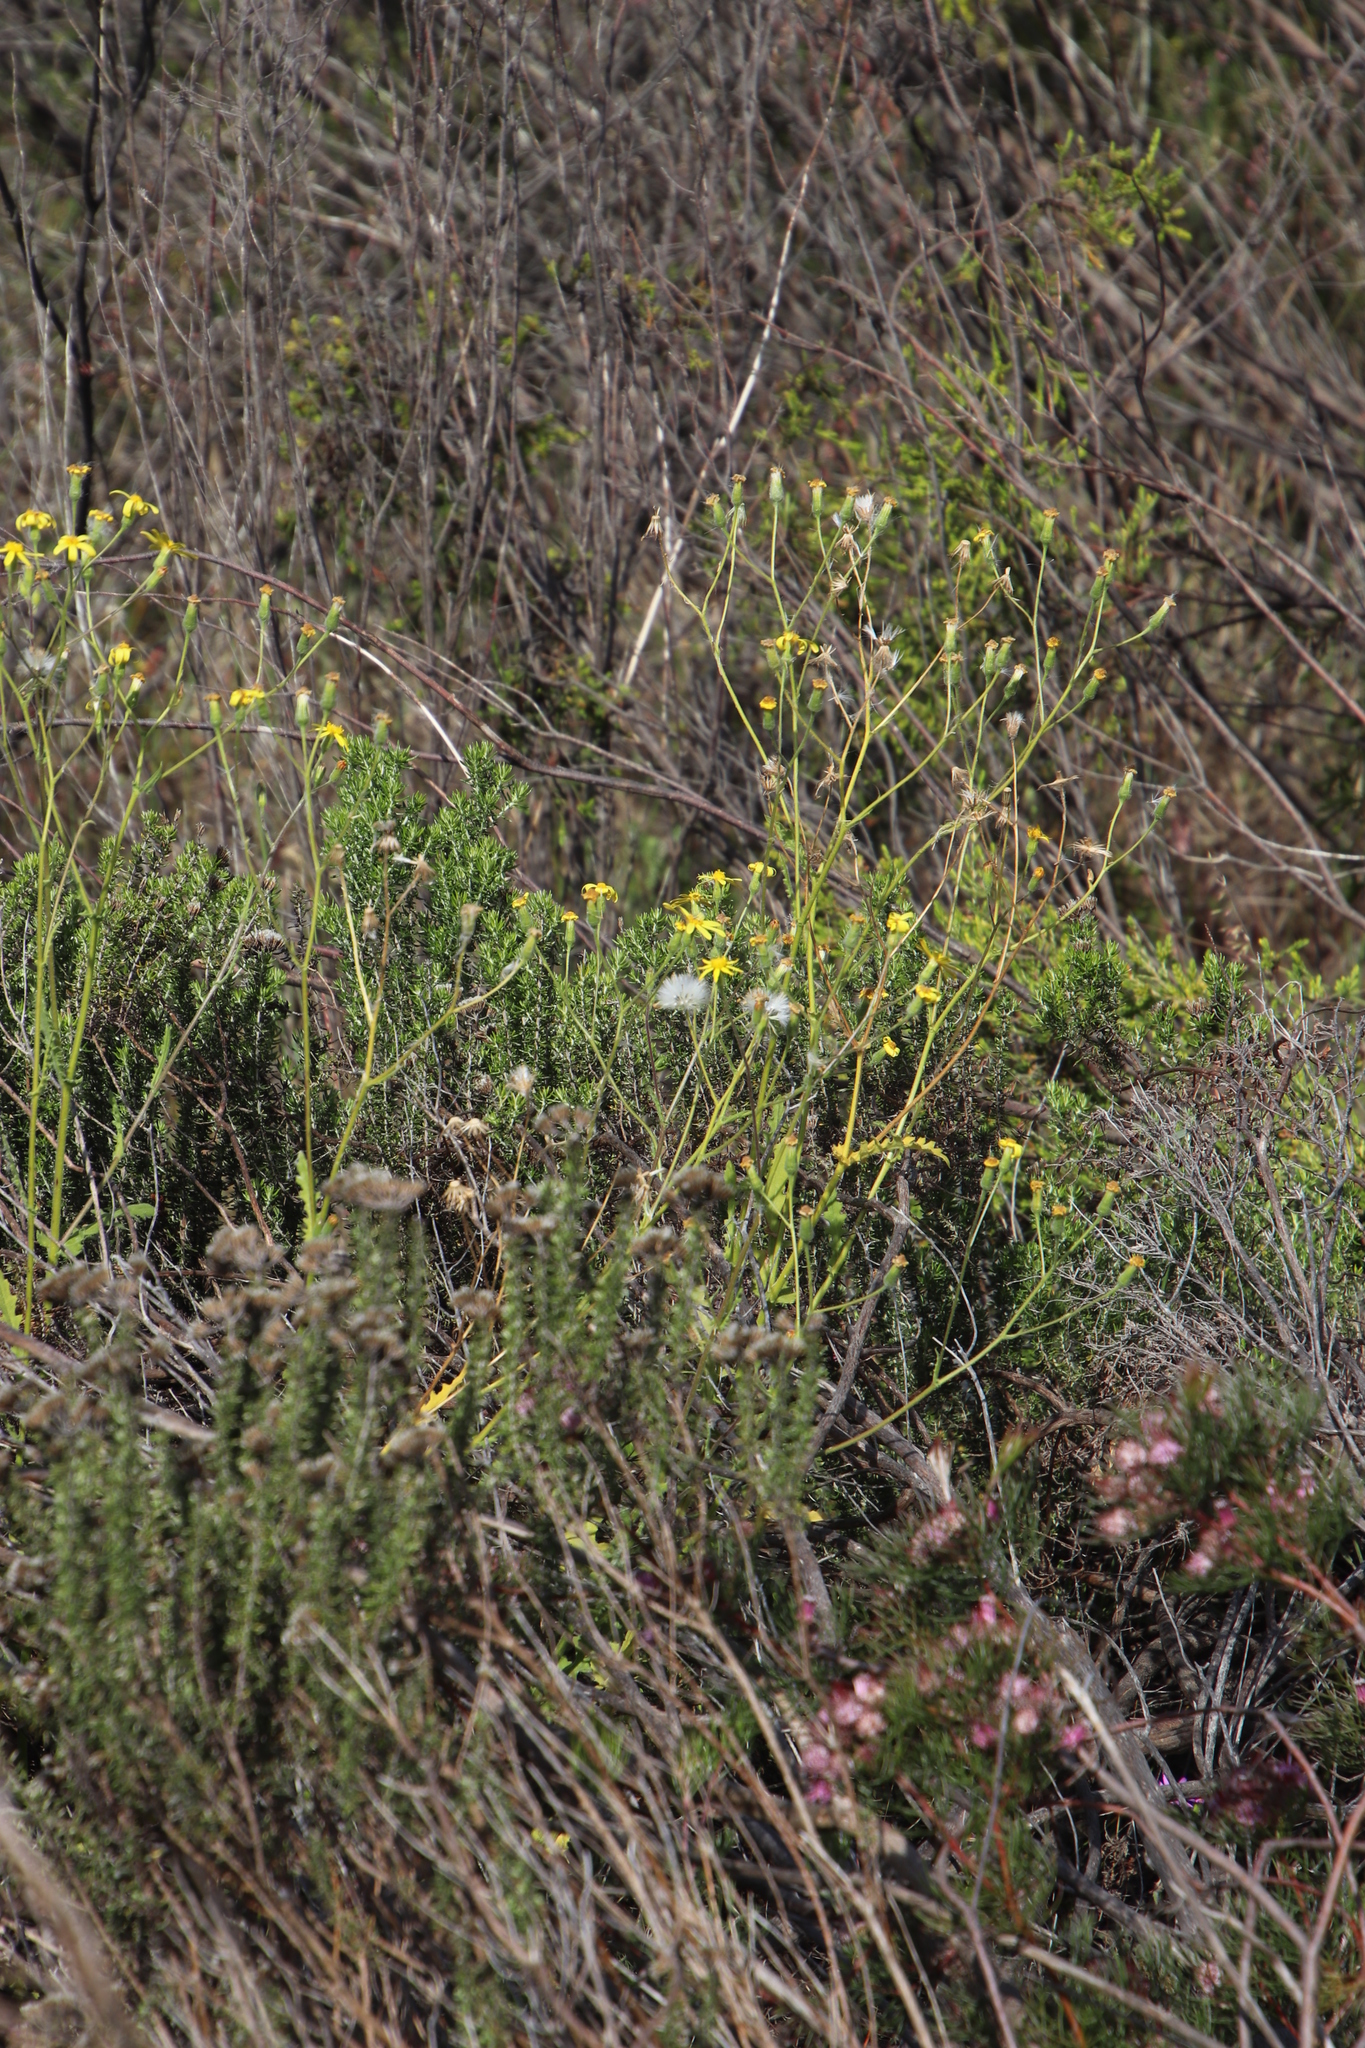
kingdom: Plantae
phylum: Tracheophyta
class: Magnoliopsida
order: Asterales
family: Asteraceae
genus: Senecio
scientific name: Senecio hastatus
